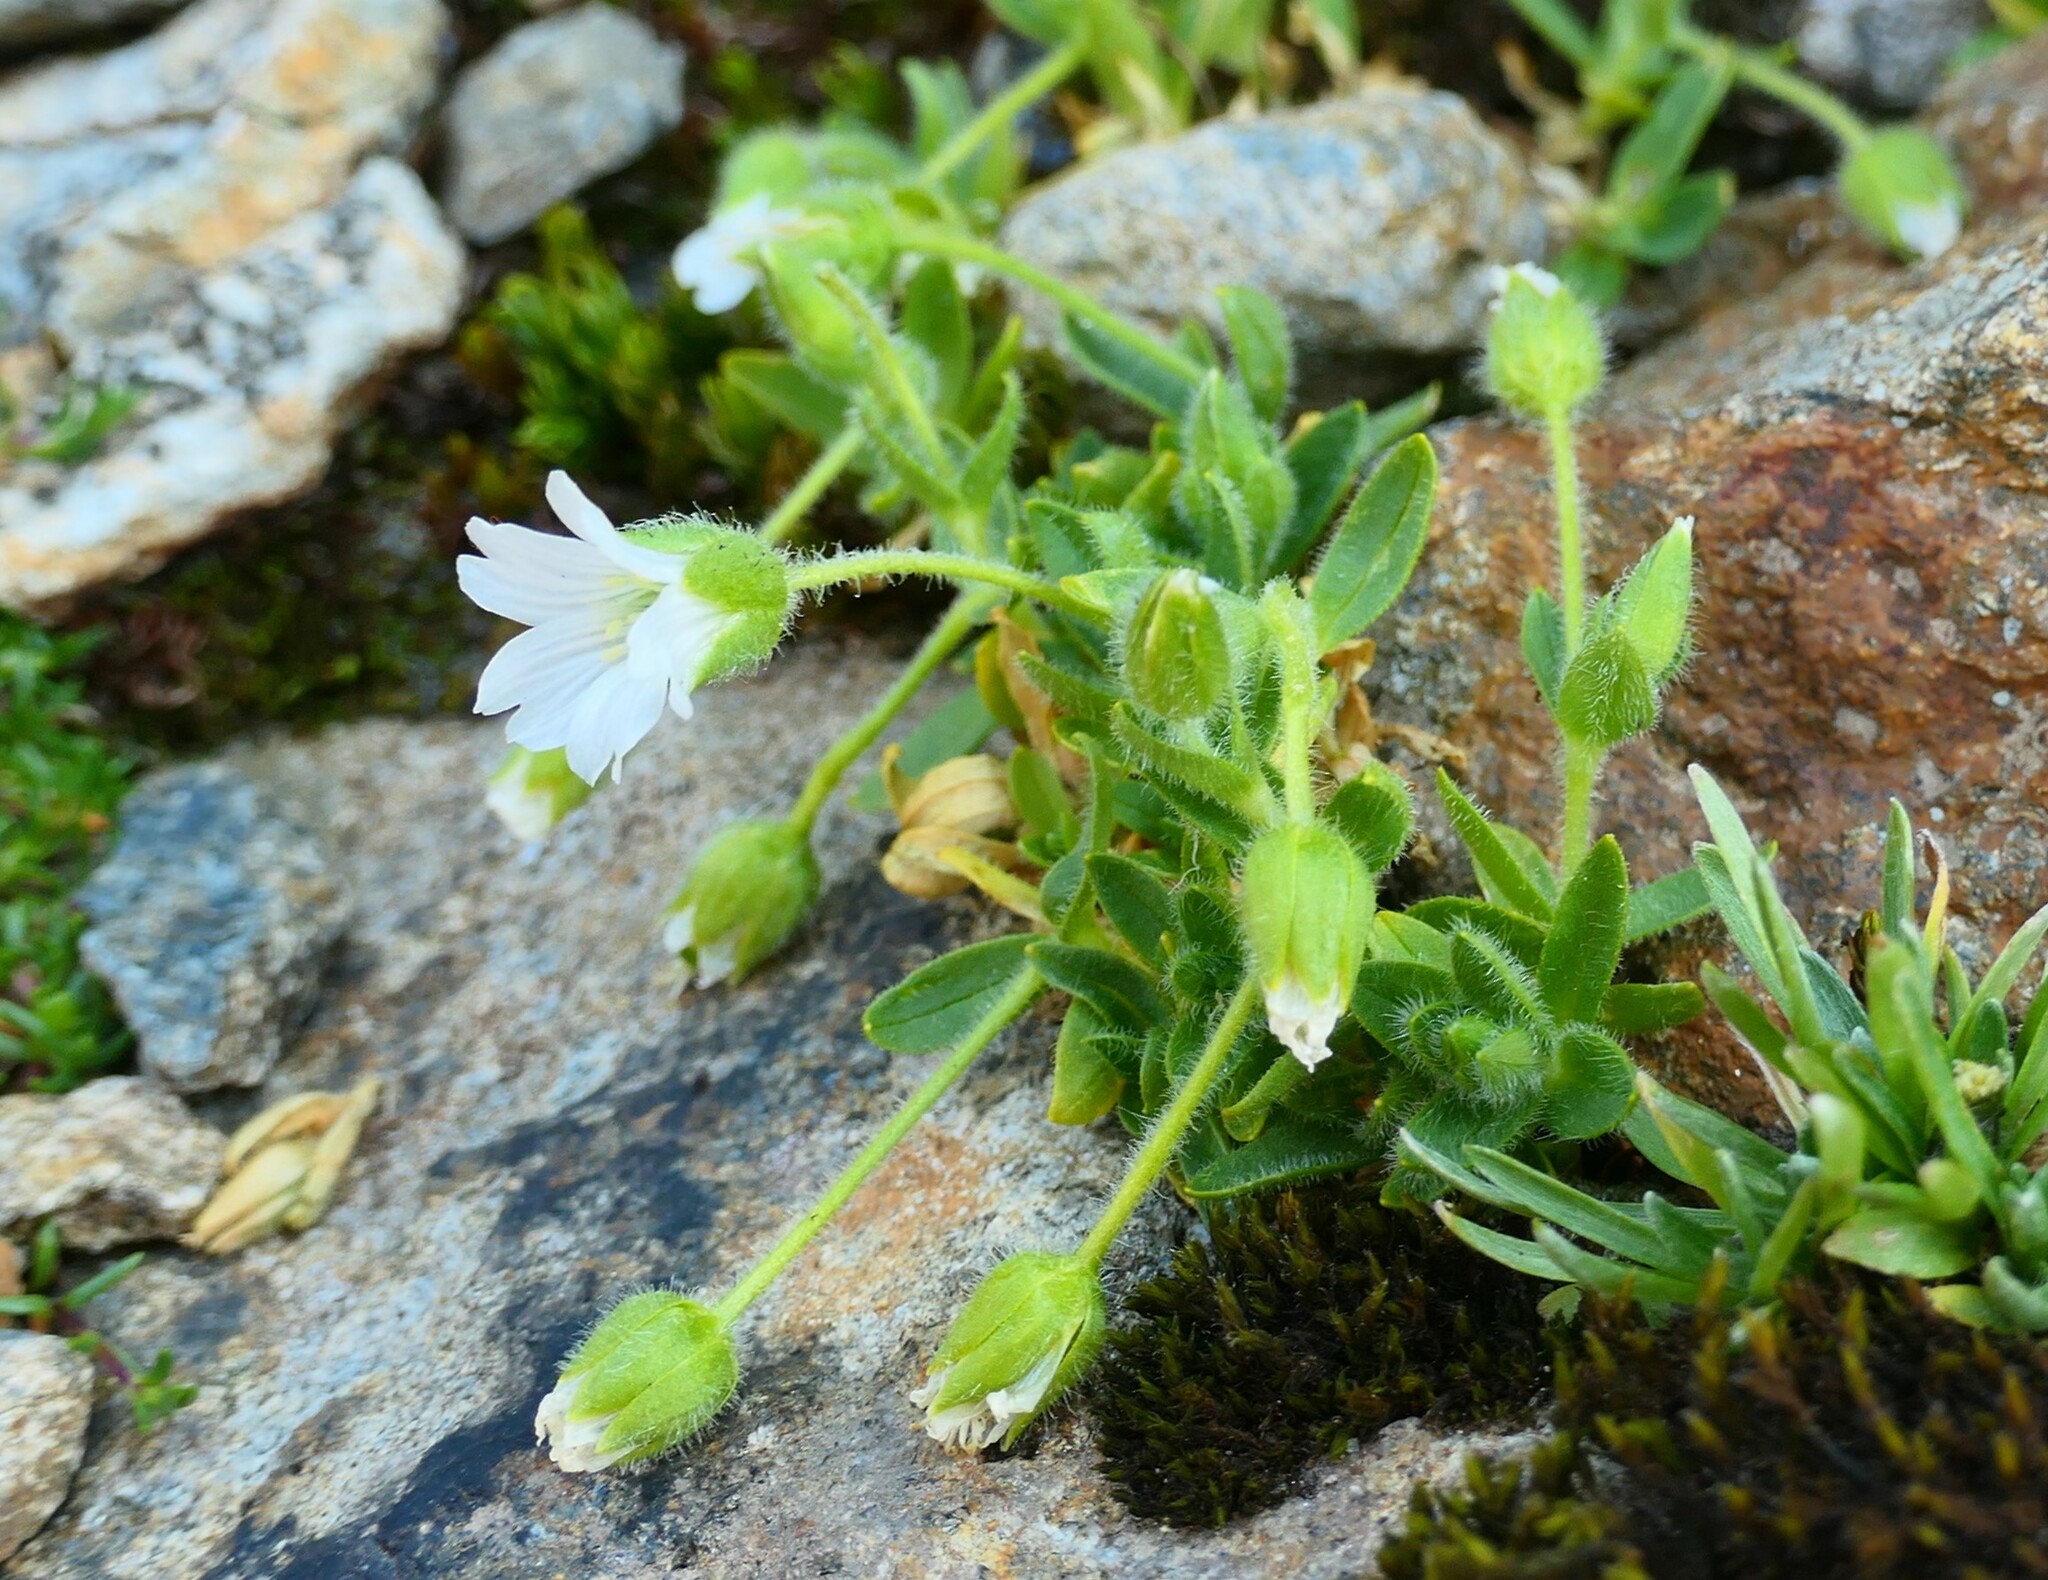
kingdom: Plantae
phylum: Tracheophyta
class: Magnoliopsida
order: Caryophyllales
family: Caryophyllaceae
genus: Cerastium
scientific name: Cerastium pedunculatum
